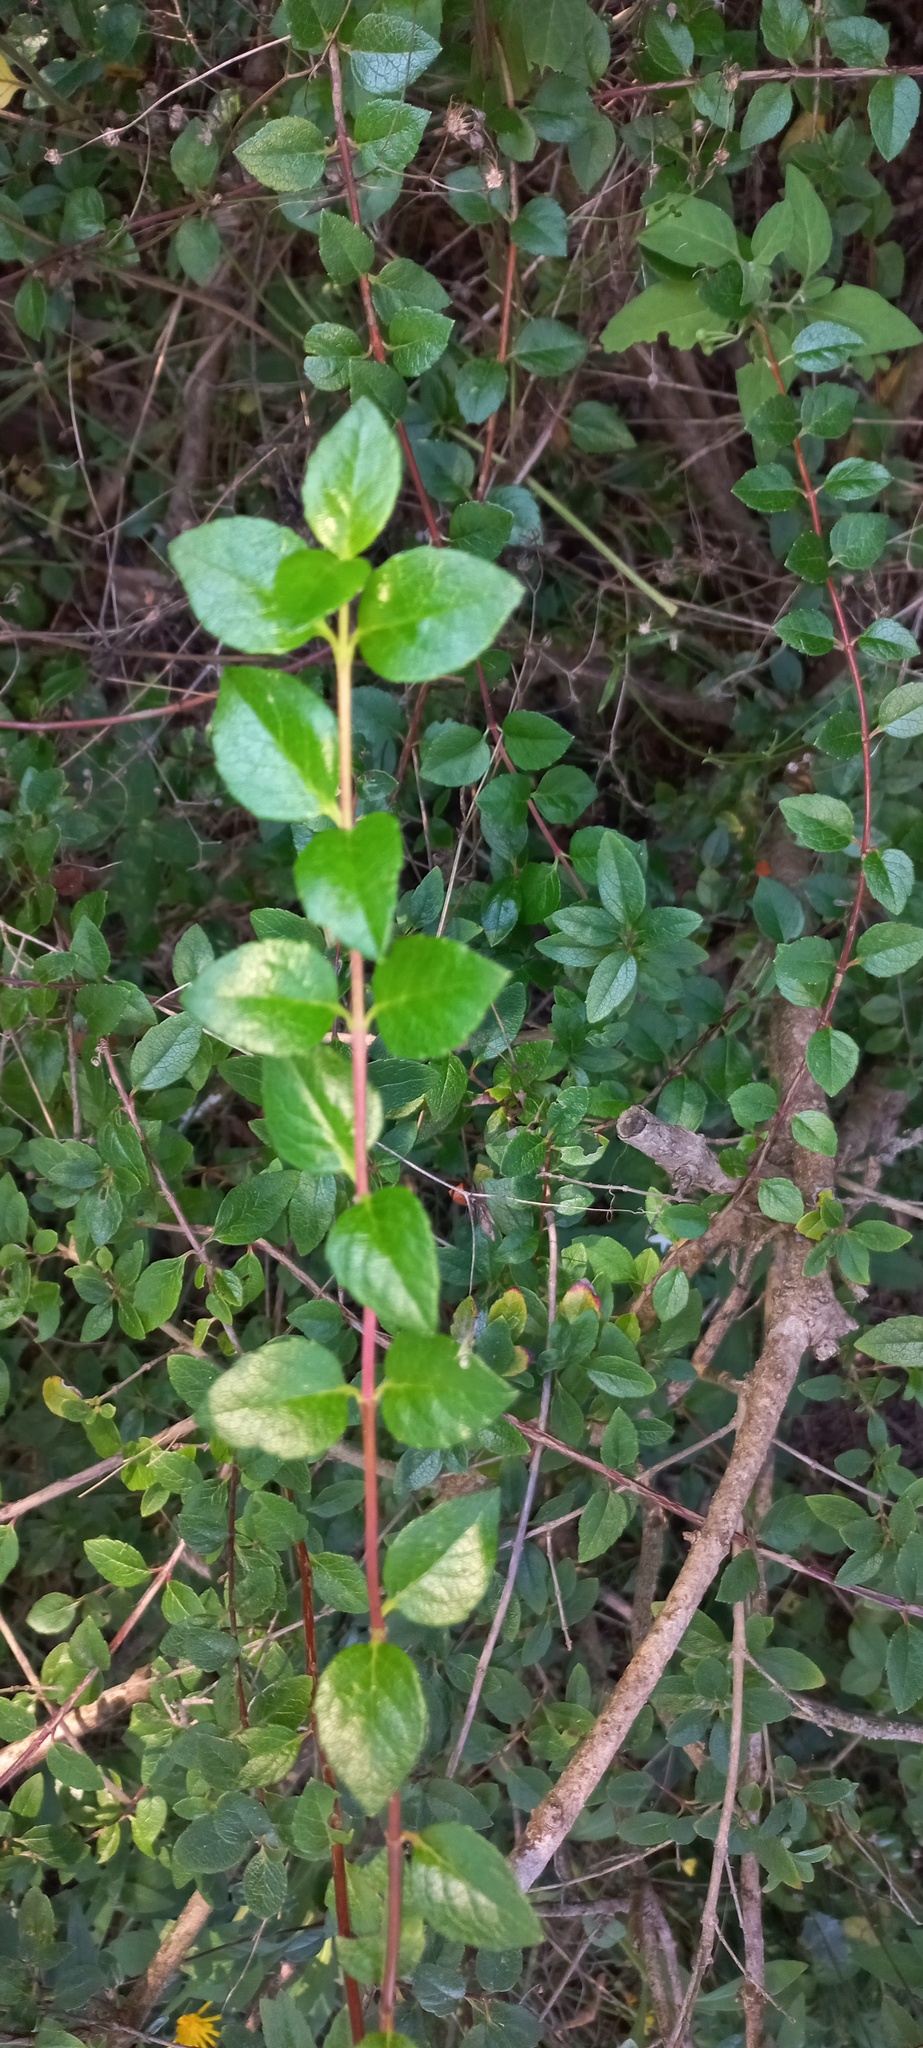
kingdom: Plantae
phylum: Tracheophyta
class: Magnoliopsida
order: Escalloniales
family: Escalloniaceae
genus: Escallonia
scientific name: Escallonia rubra
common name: Redclaws
